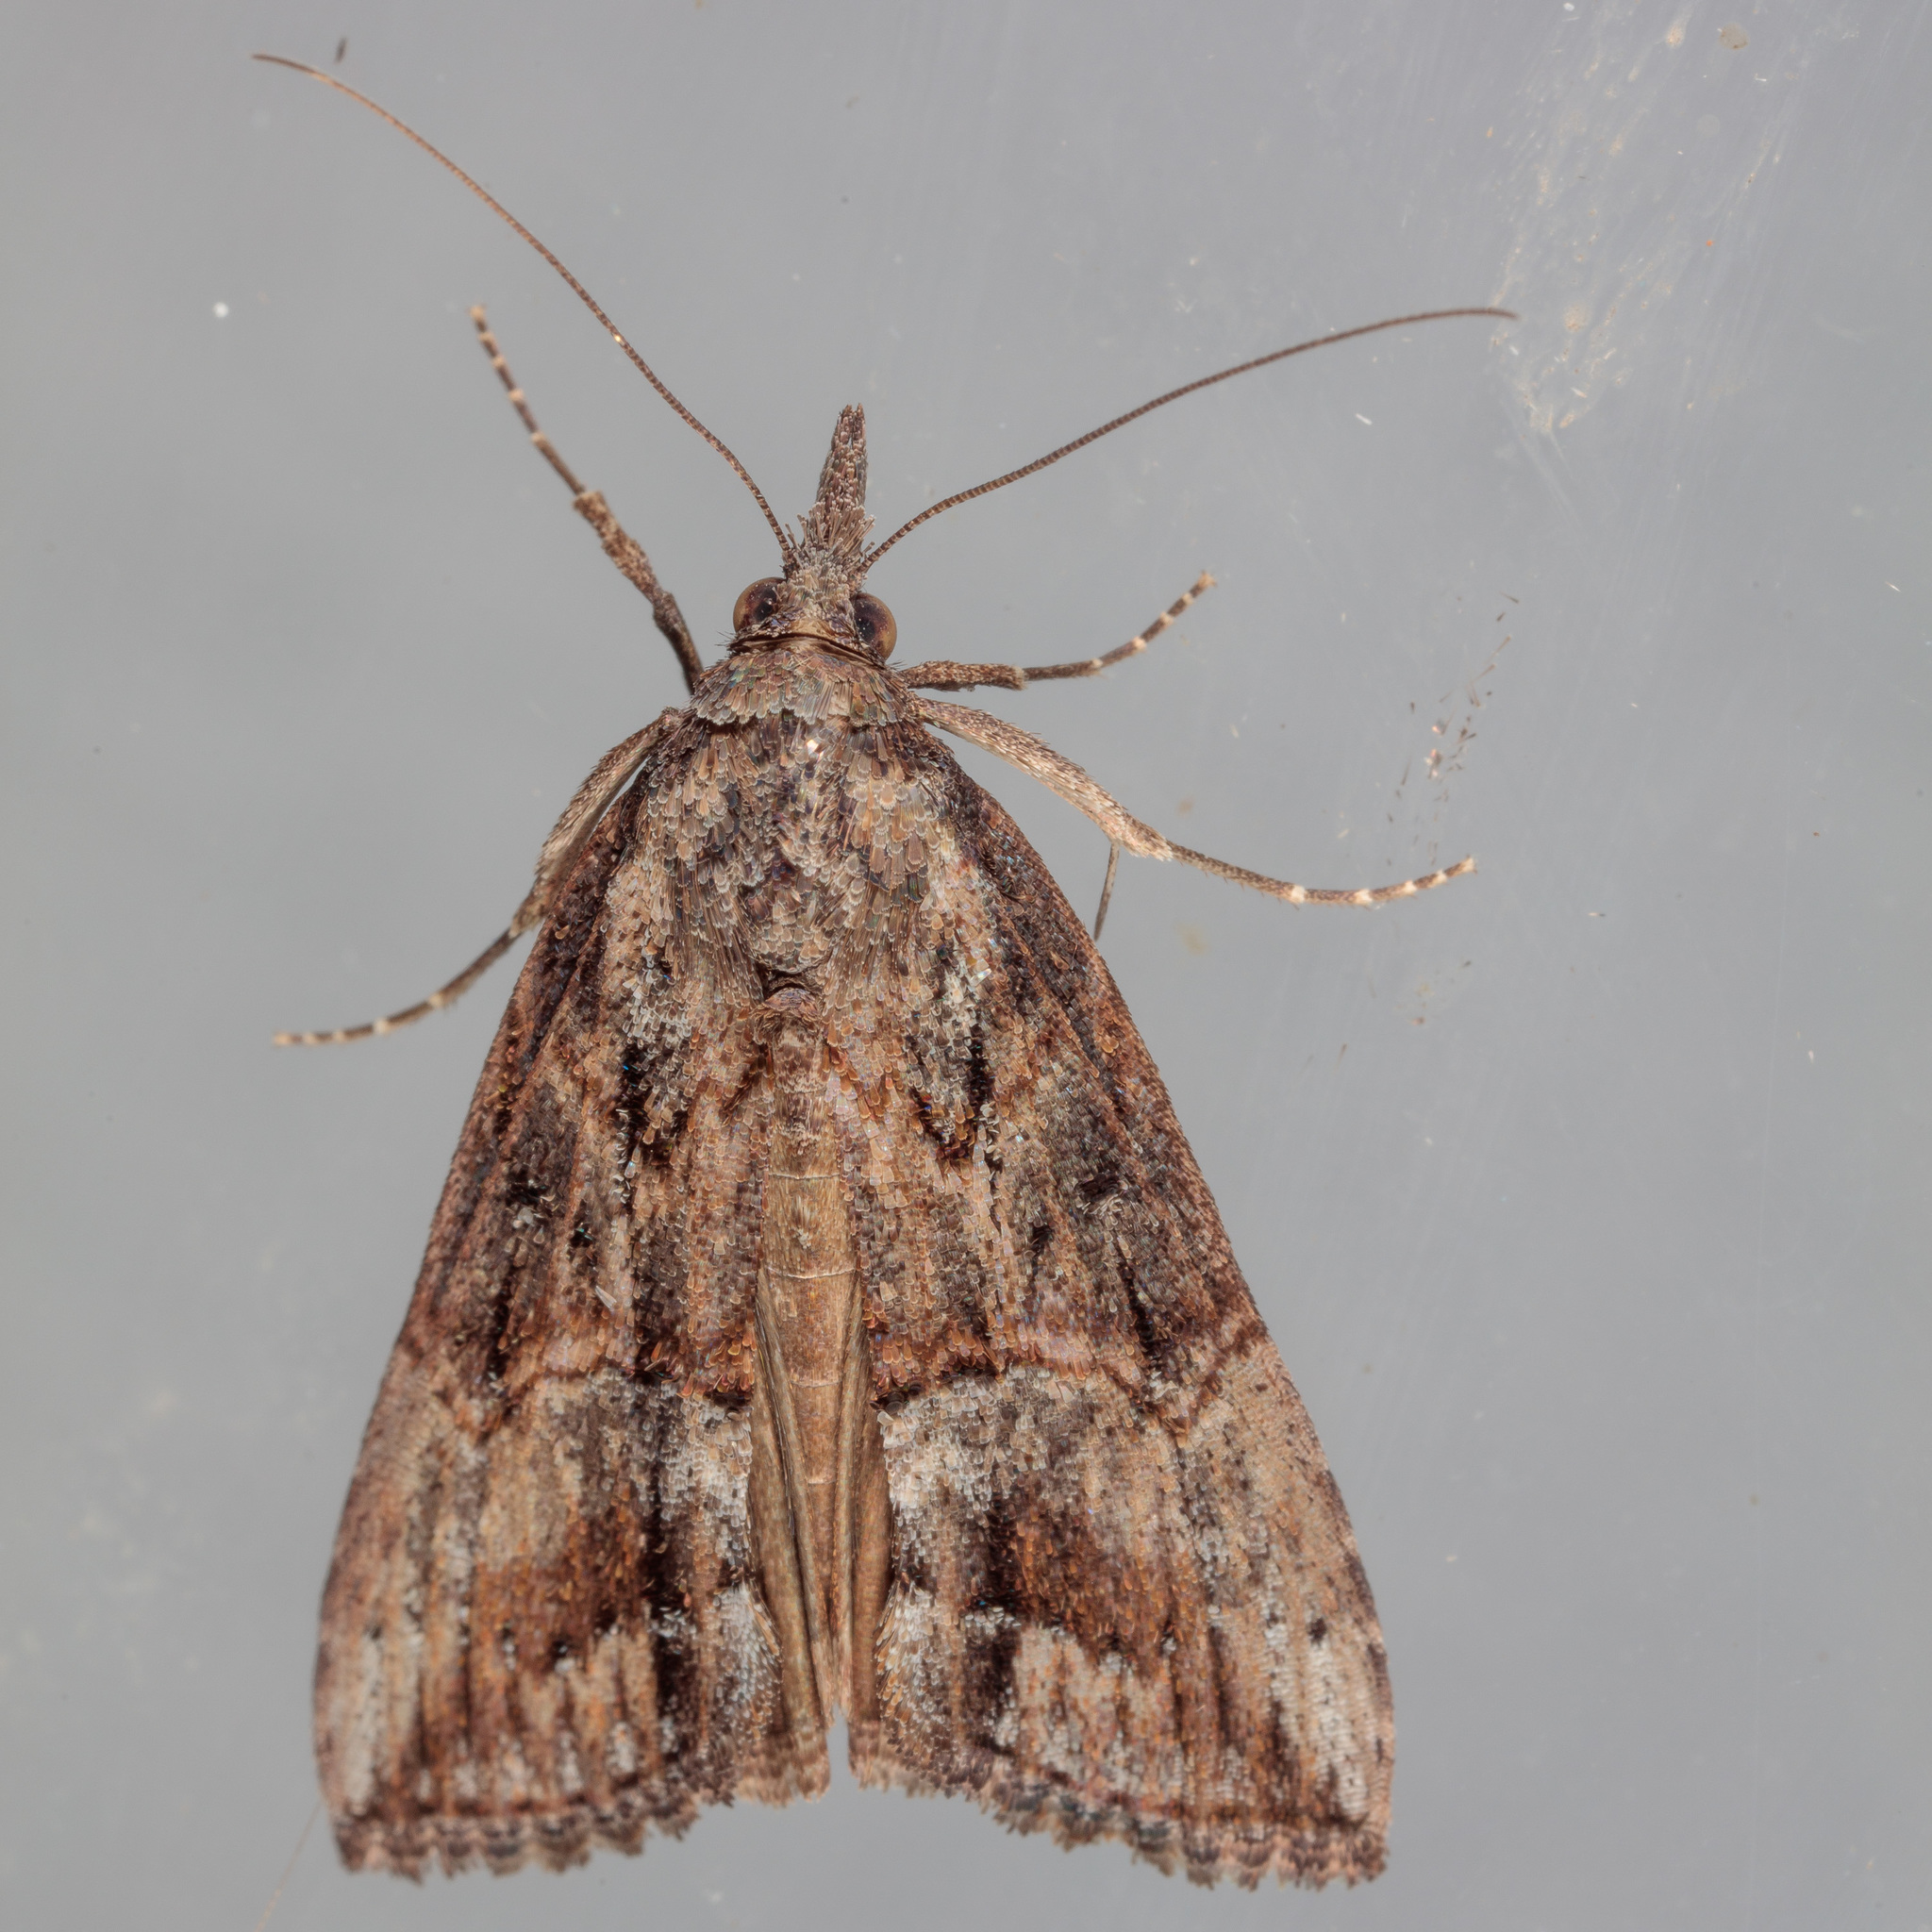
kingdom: Animalia
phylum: Arthropoda
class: Insecta
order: Lepidoptera
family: Erebidae
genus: Hypena
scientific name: Hypena scabra
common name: Green cloverworm
